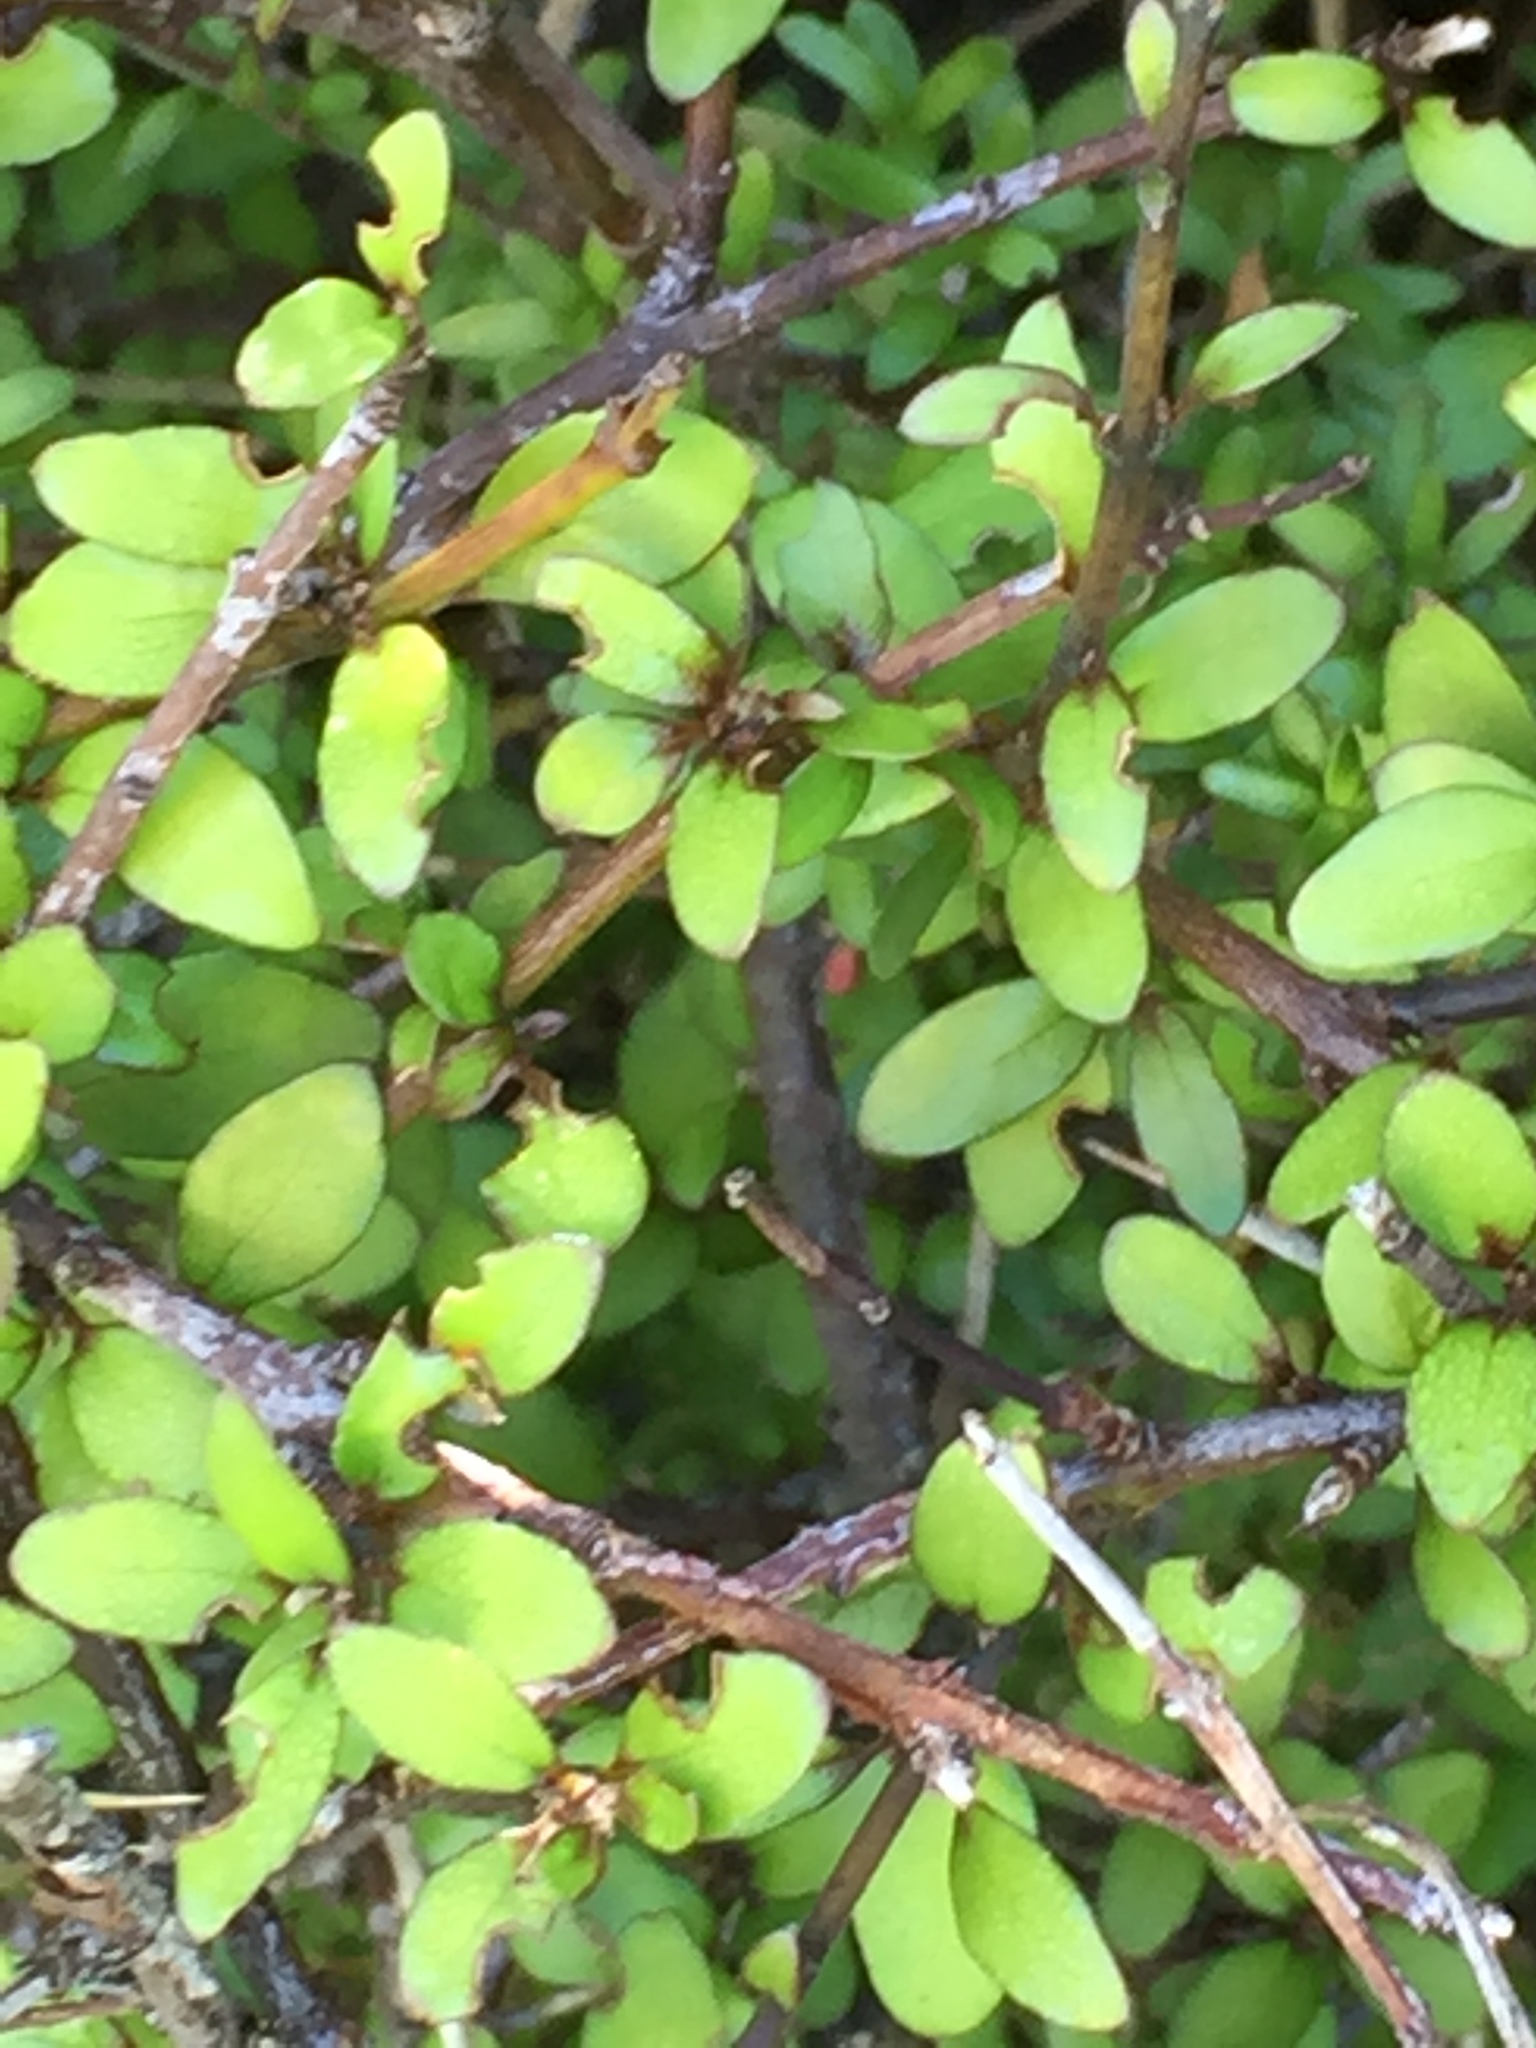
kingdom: Plantae
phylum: Tracheophyta
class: Magnoliopsida
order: Oxalidales
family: Elaeocarpaceae
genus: Aristotelia
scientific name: Aristotelia fruticosa
